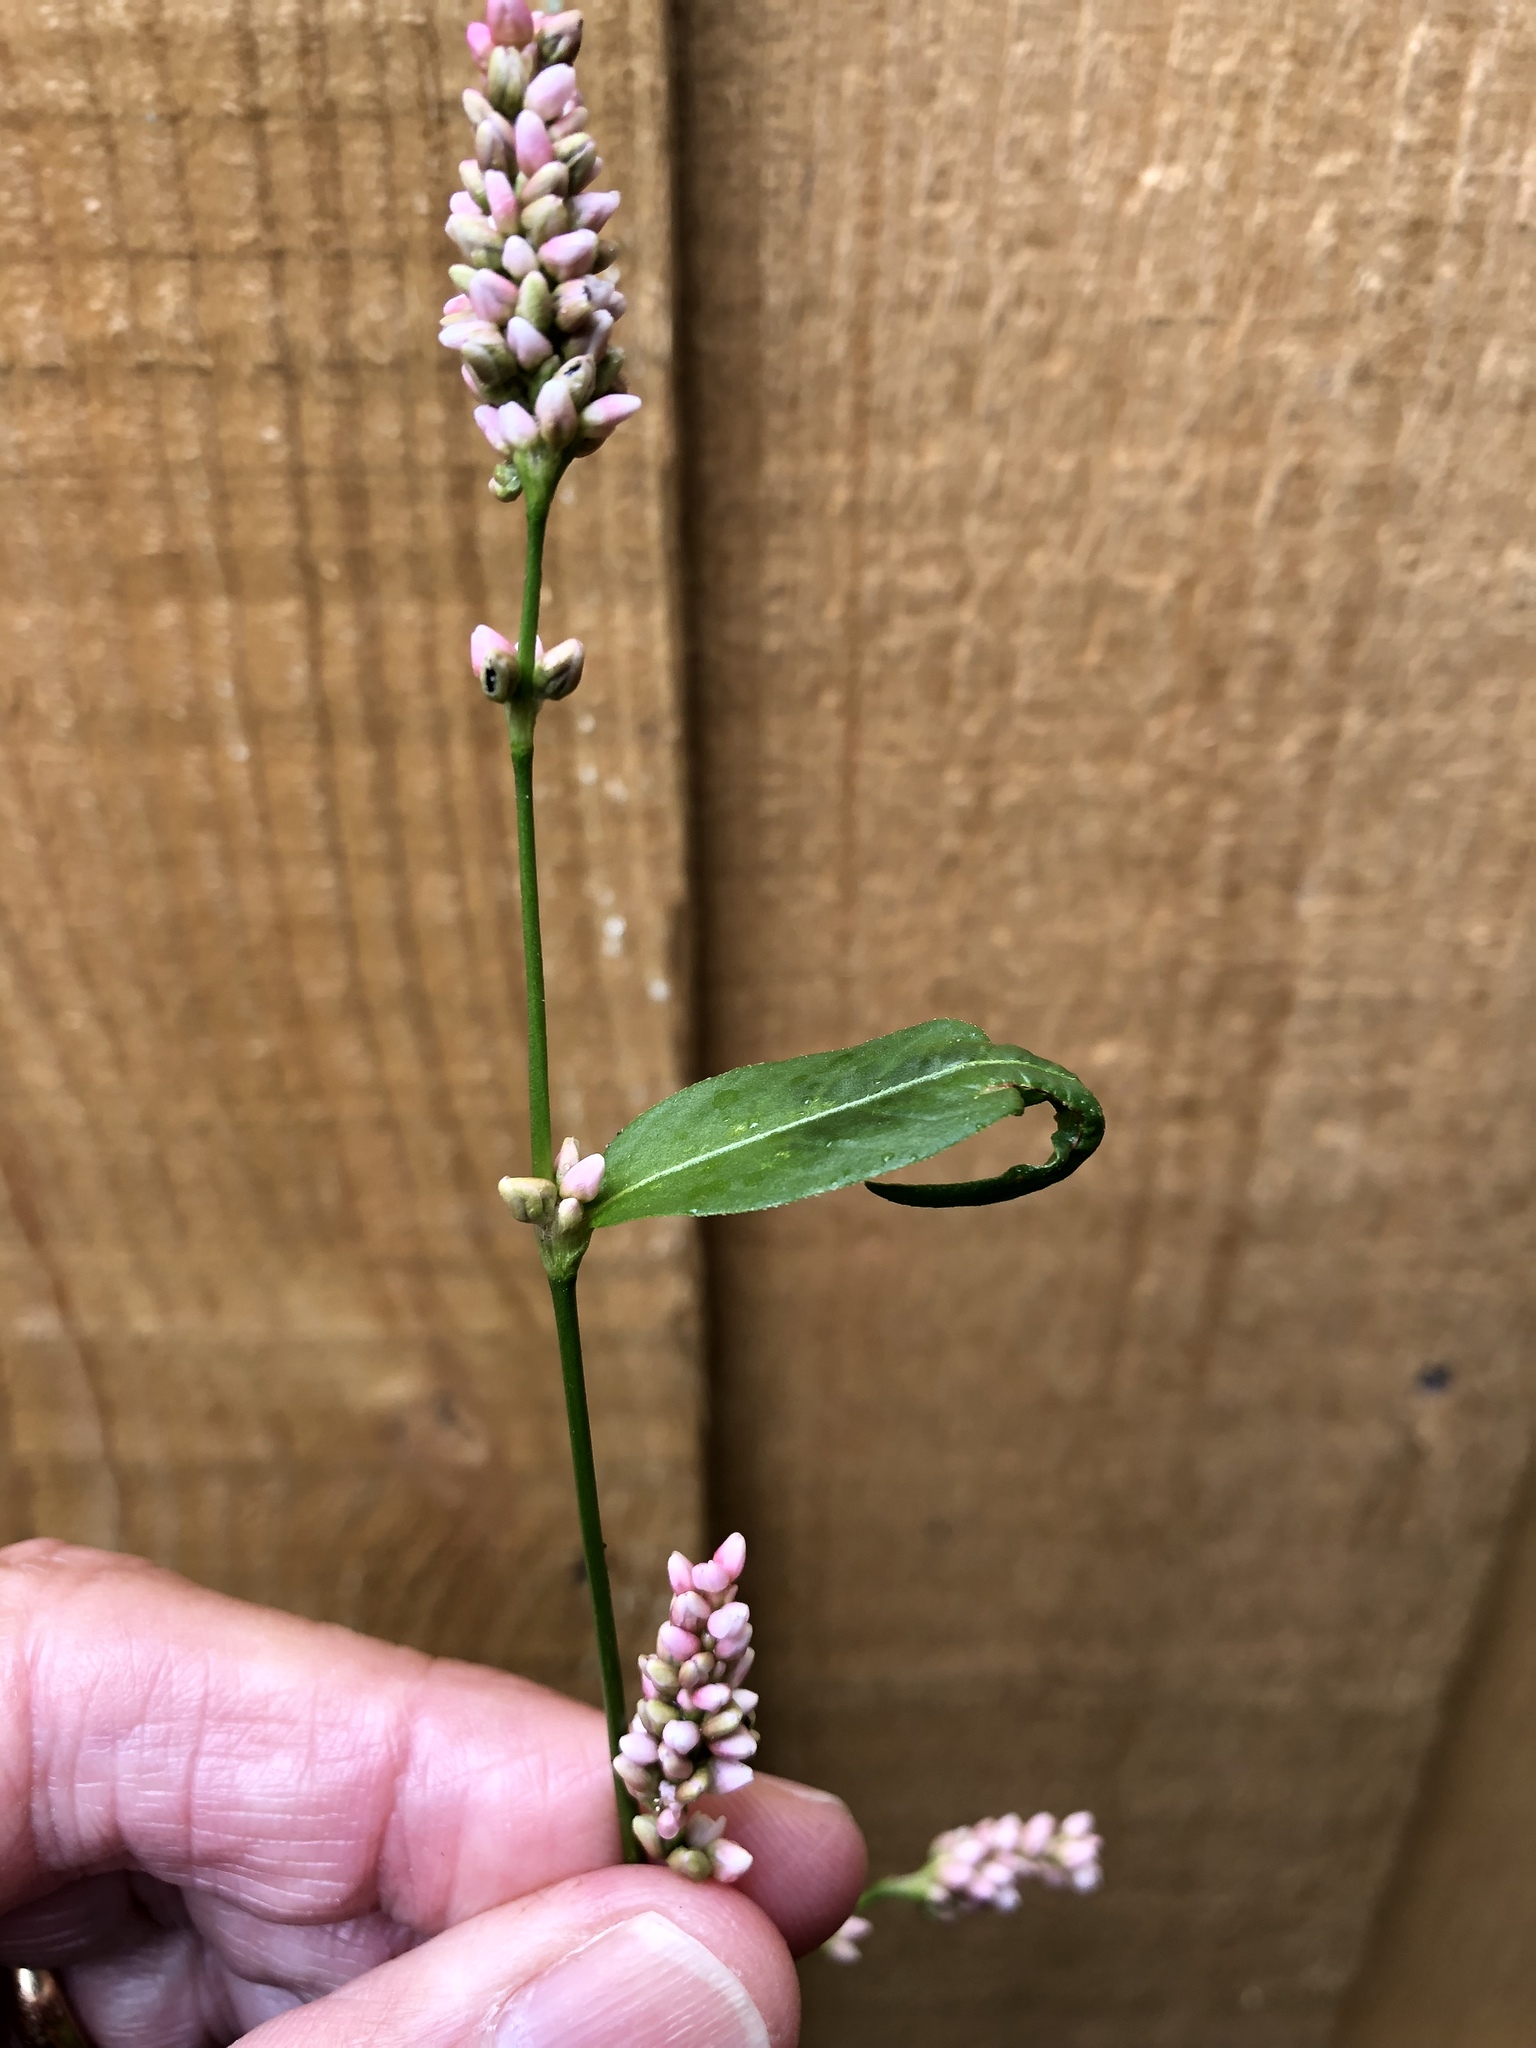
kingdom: Plantae
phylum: Tracheophyta
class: Magnoliopsida
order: Caryophyllales
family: Polygonaceae
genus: Persicaria
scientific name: Persicaria maculosa
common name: Redshank
